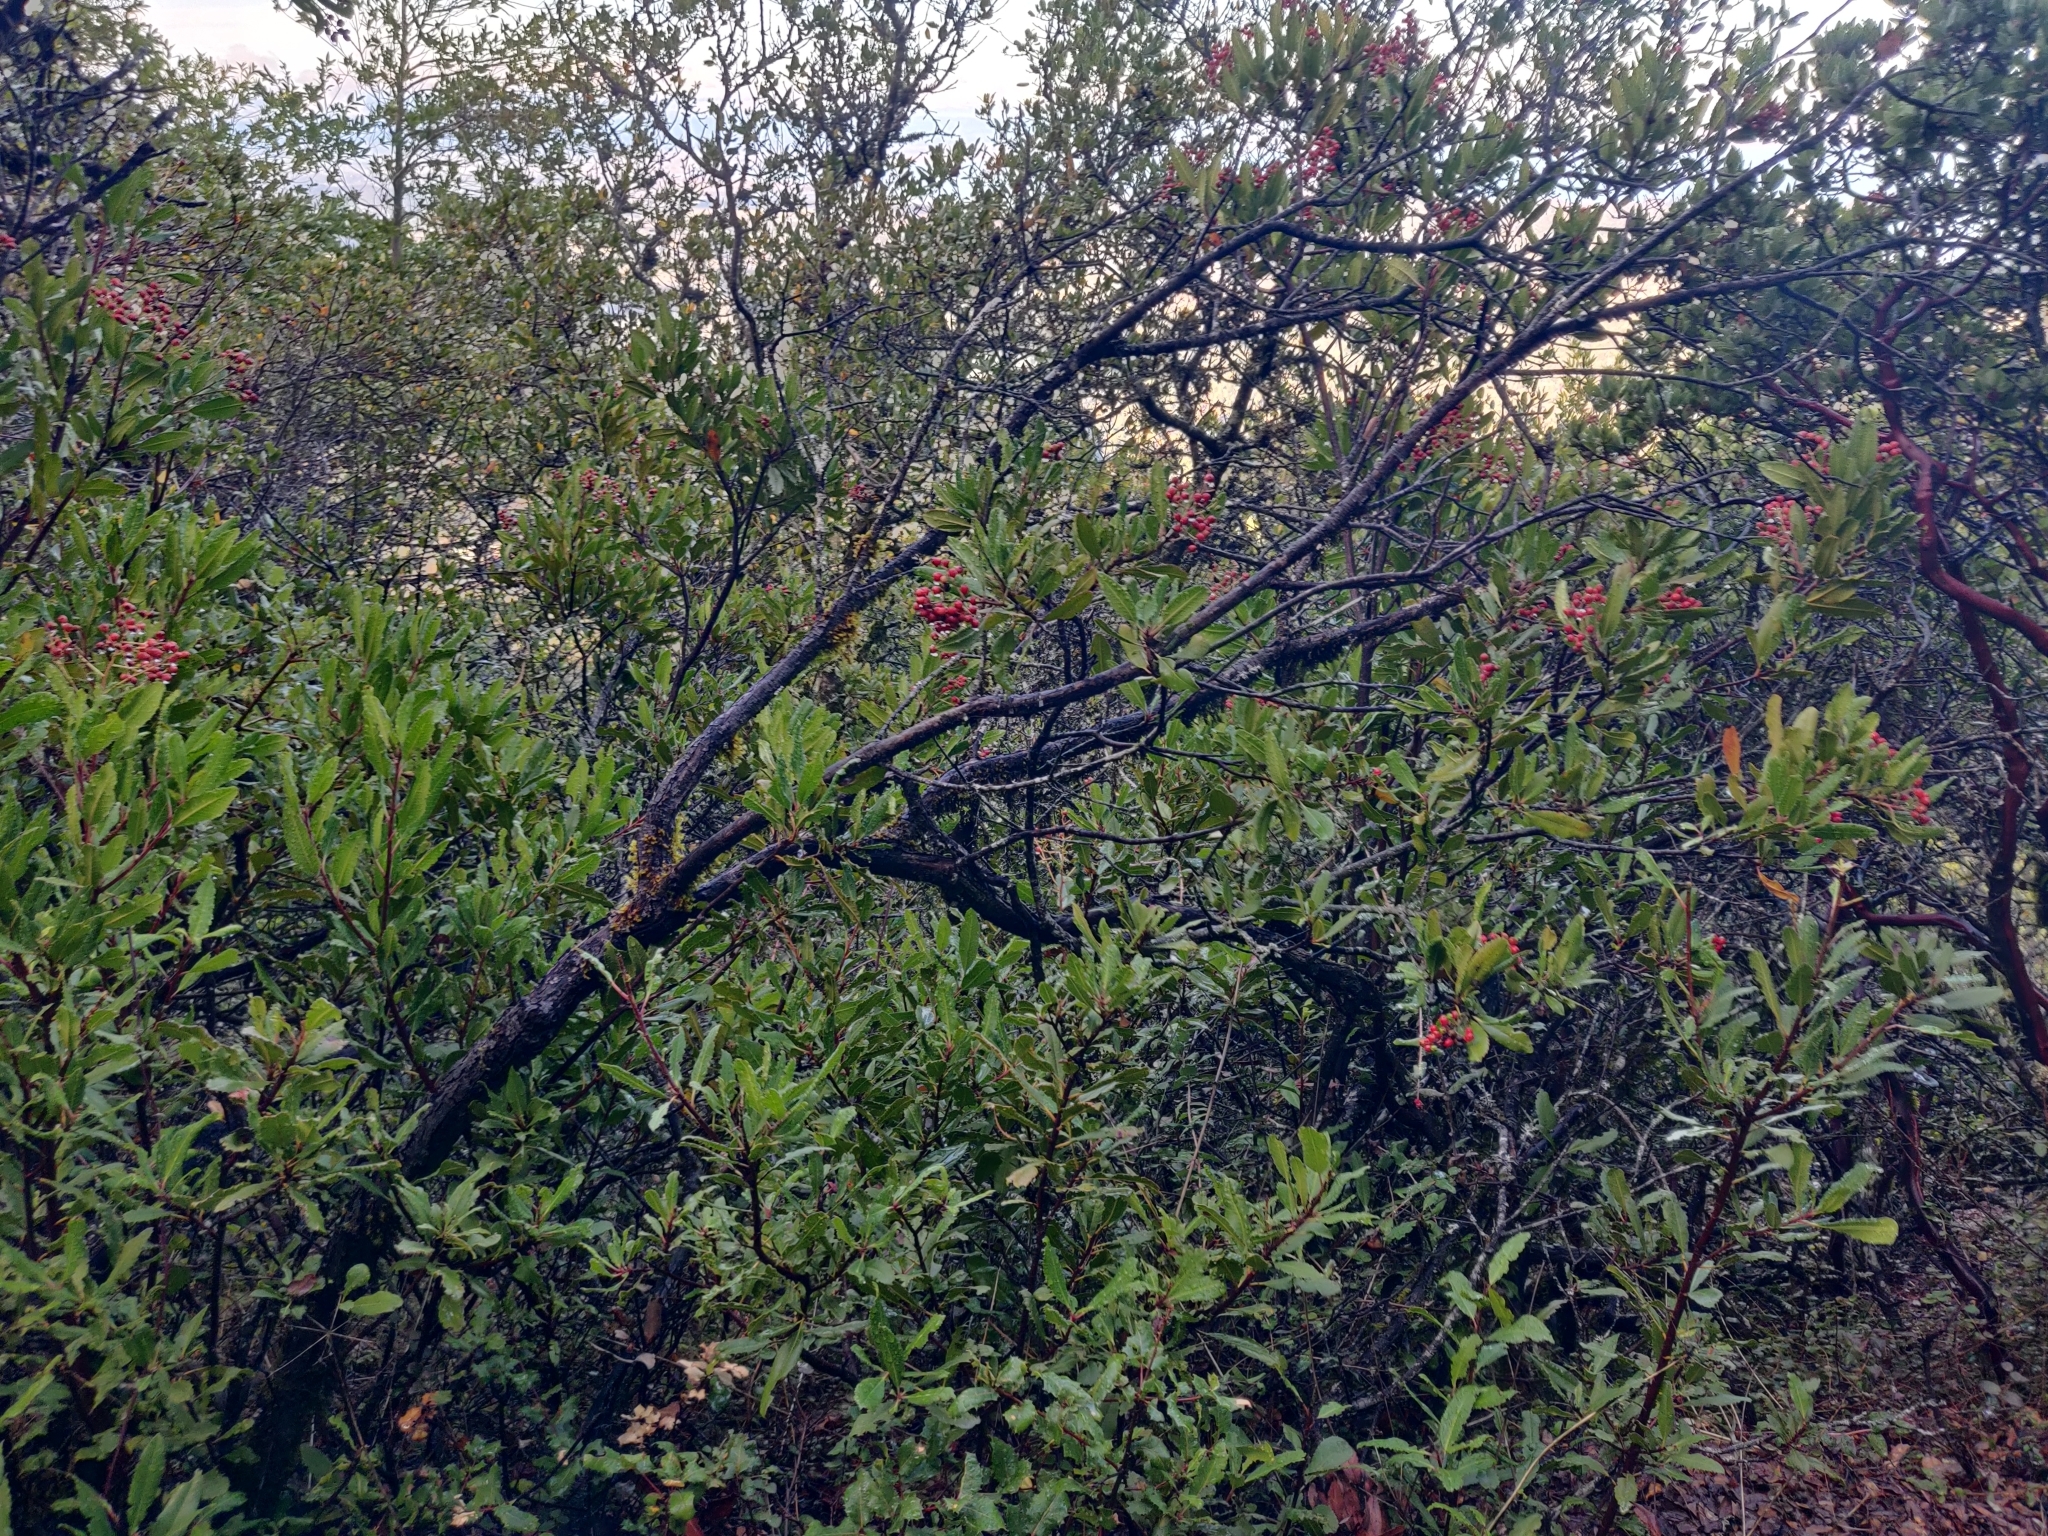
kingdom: Plantae
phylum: Tracheophyta
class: Magnoliopsida
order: Rosales
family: Rosaceae
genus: Heteromeles
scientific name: Heteromeles arbutifolia
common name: California-holly
